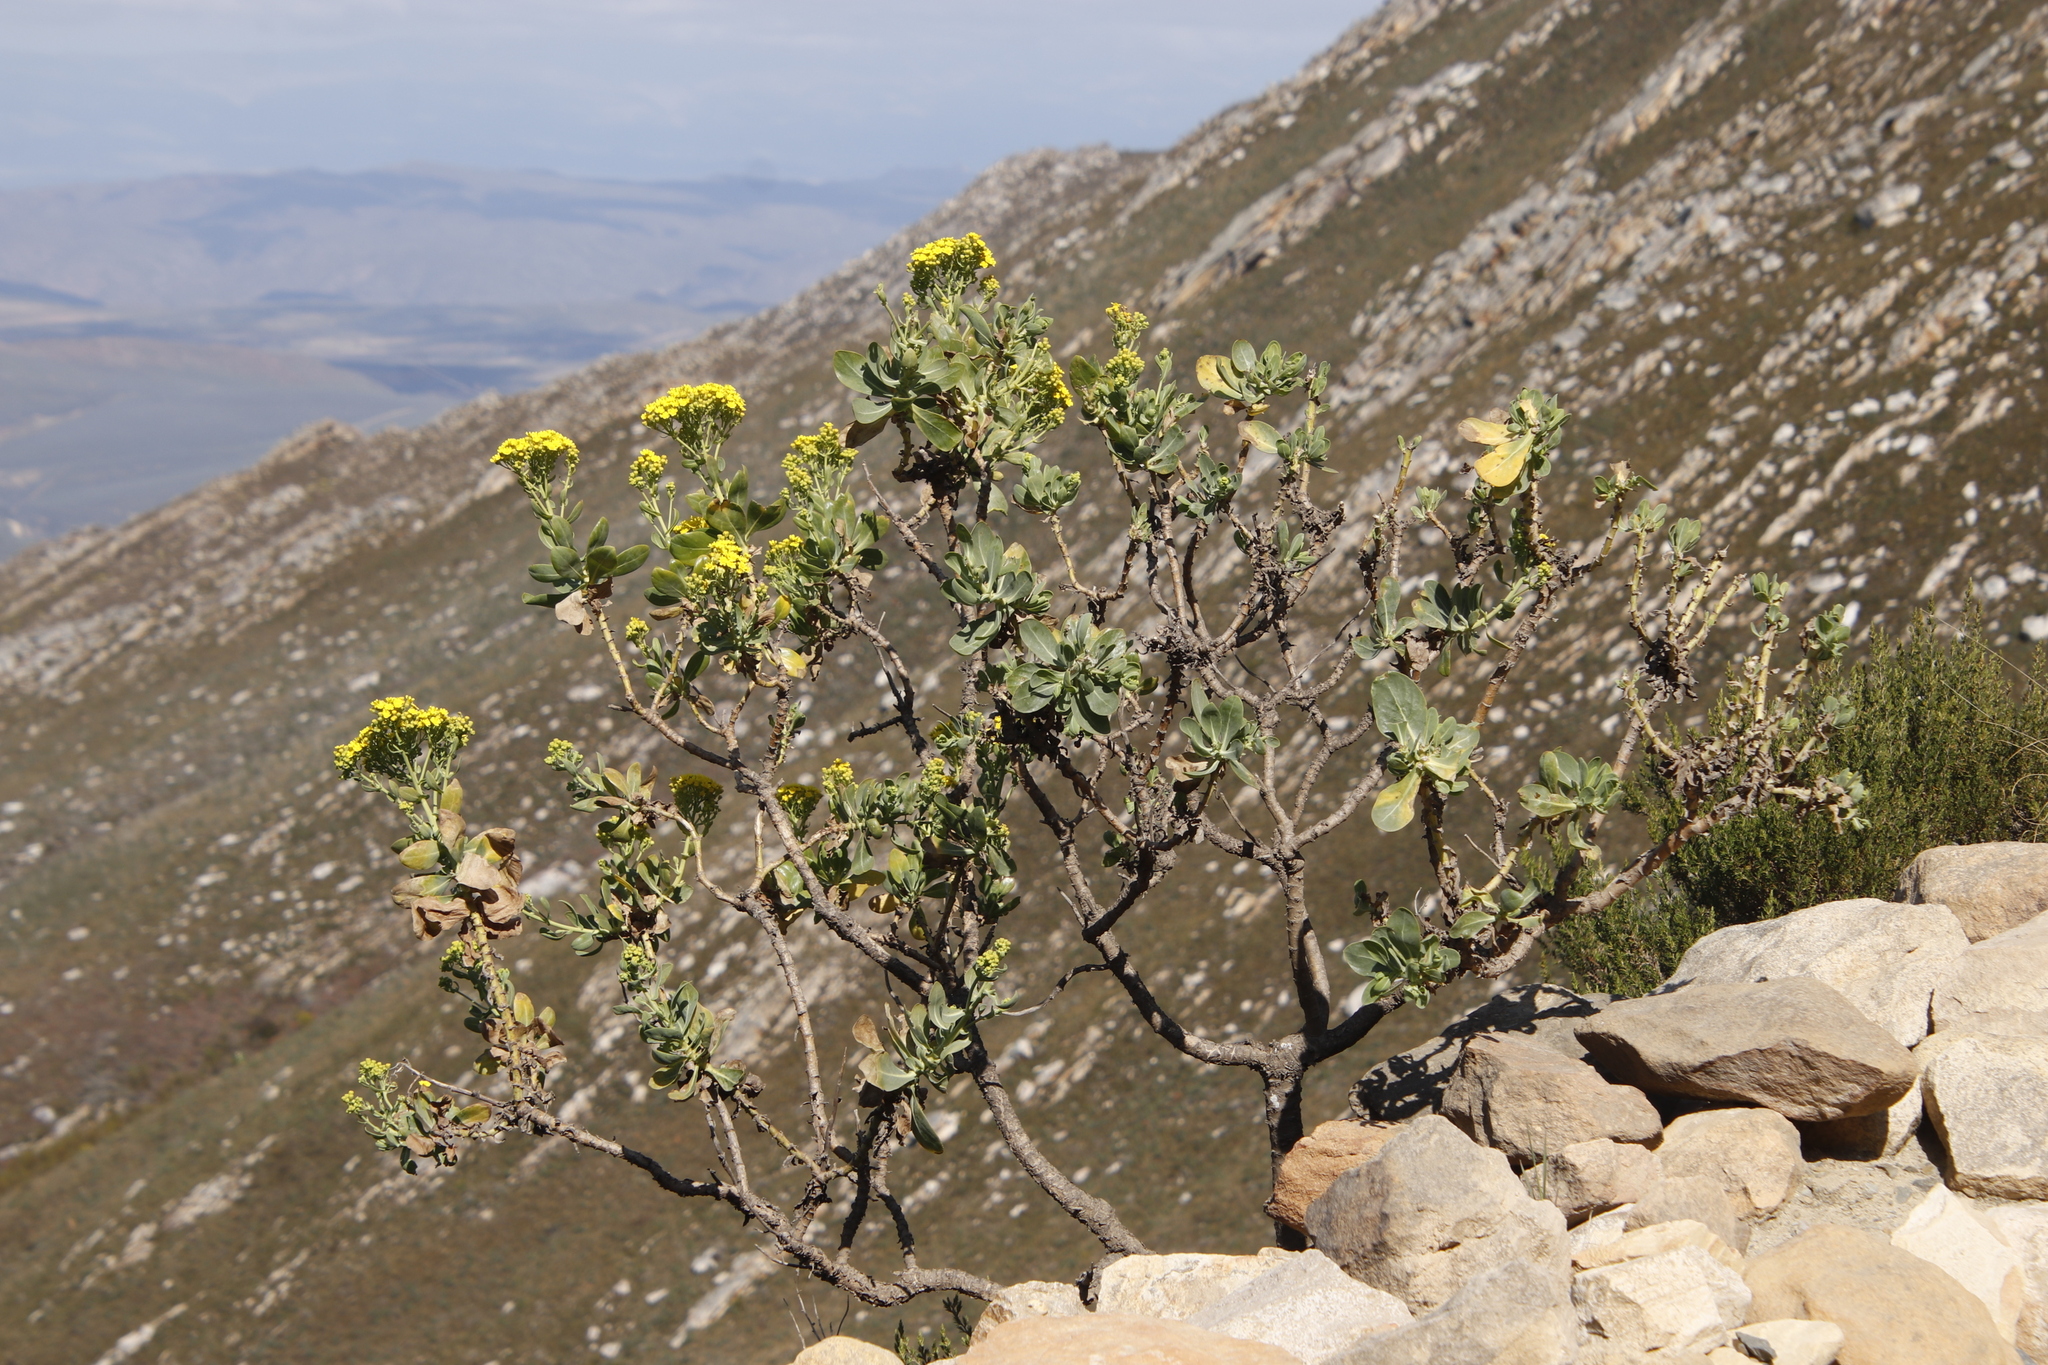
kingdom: Plantae
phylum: Tracheophyta
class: Magnoliopsida
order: Asterales
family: Asteraceae
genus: Othonna
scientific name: Othonna parviflora
